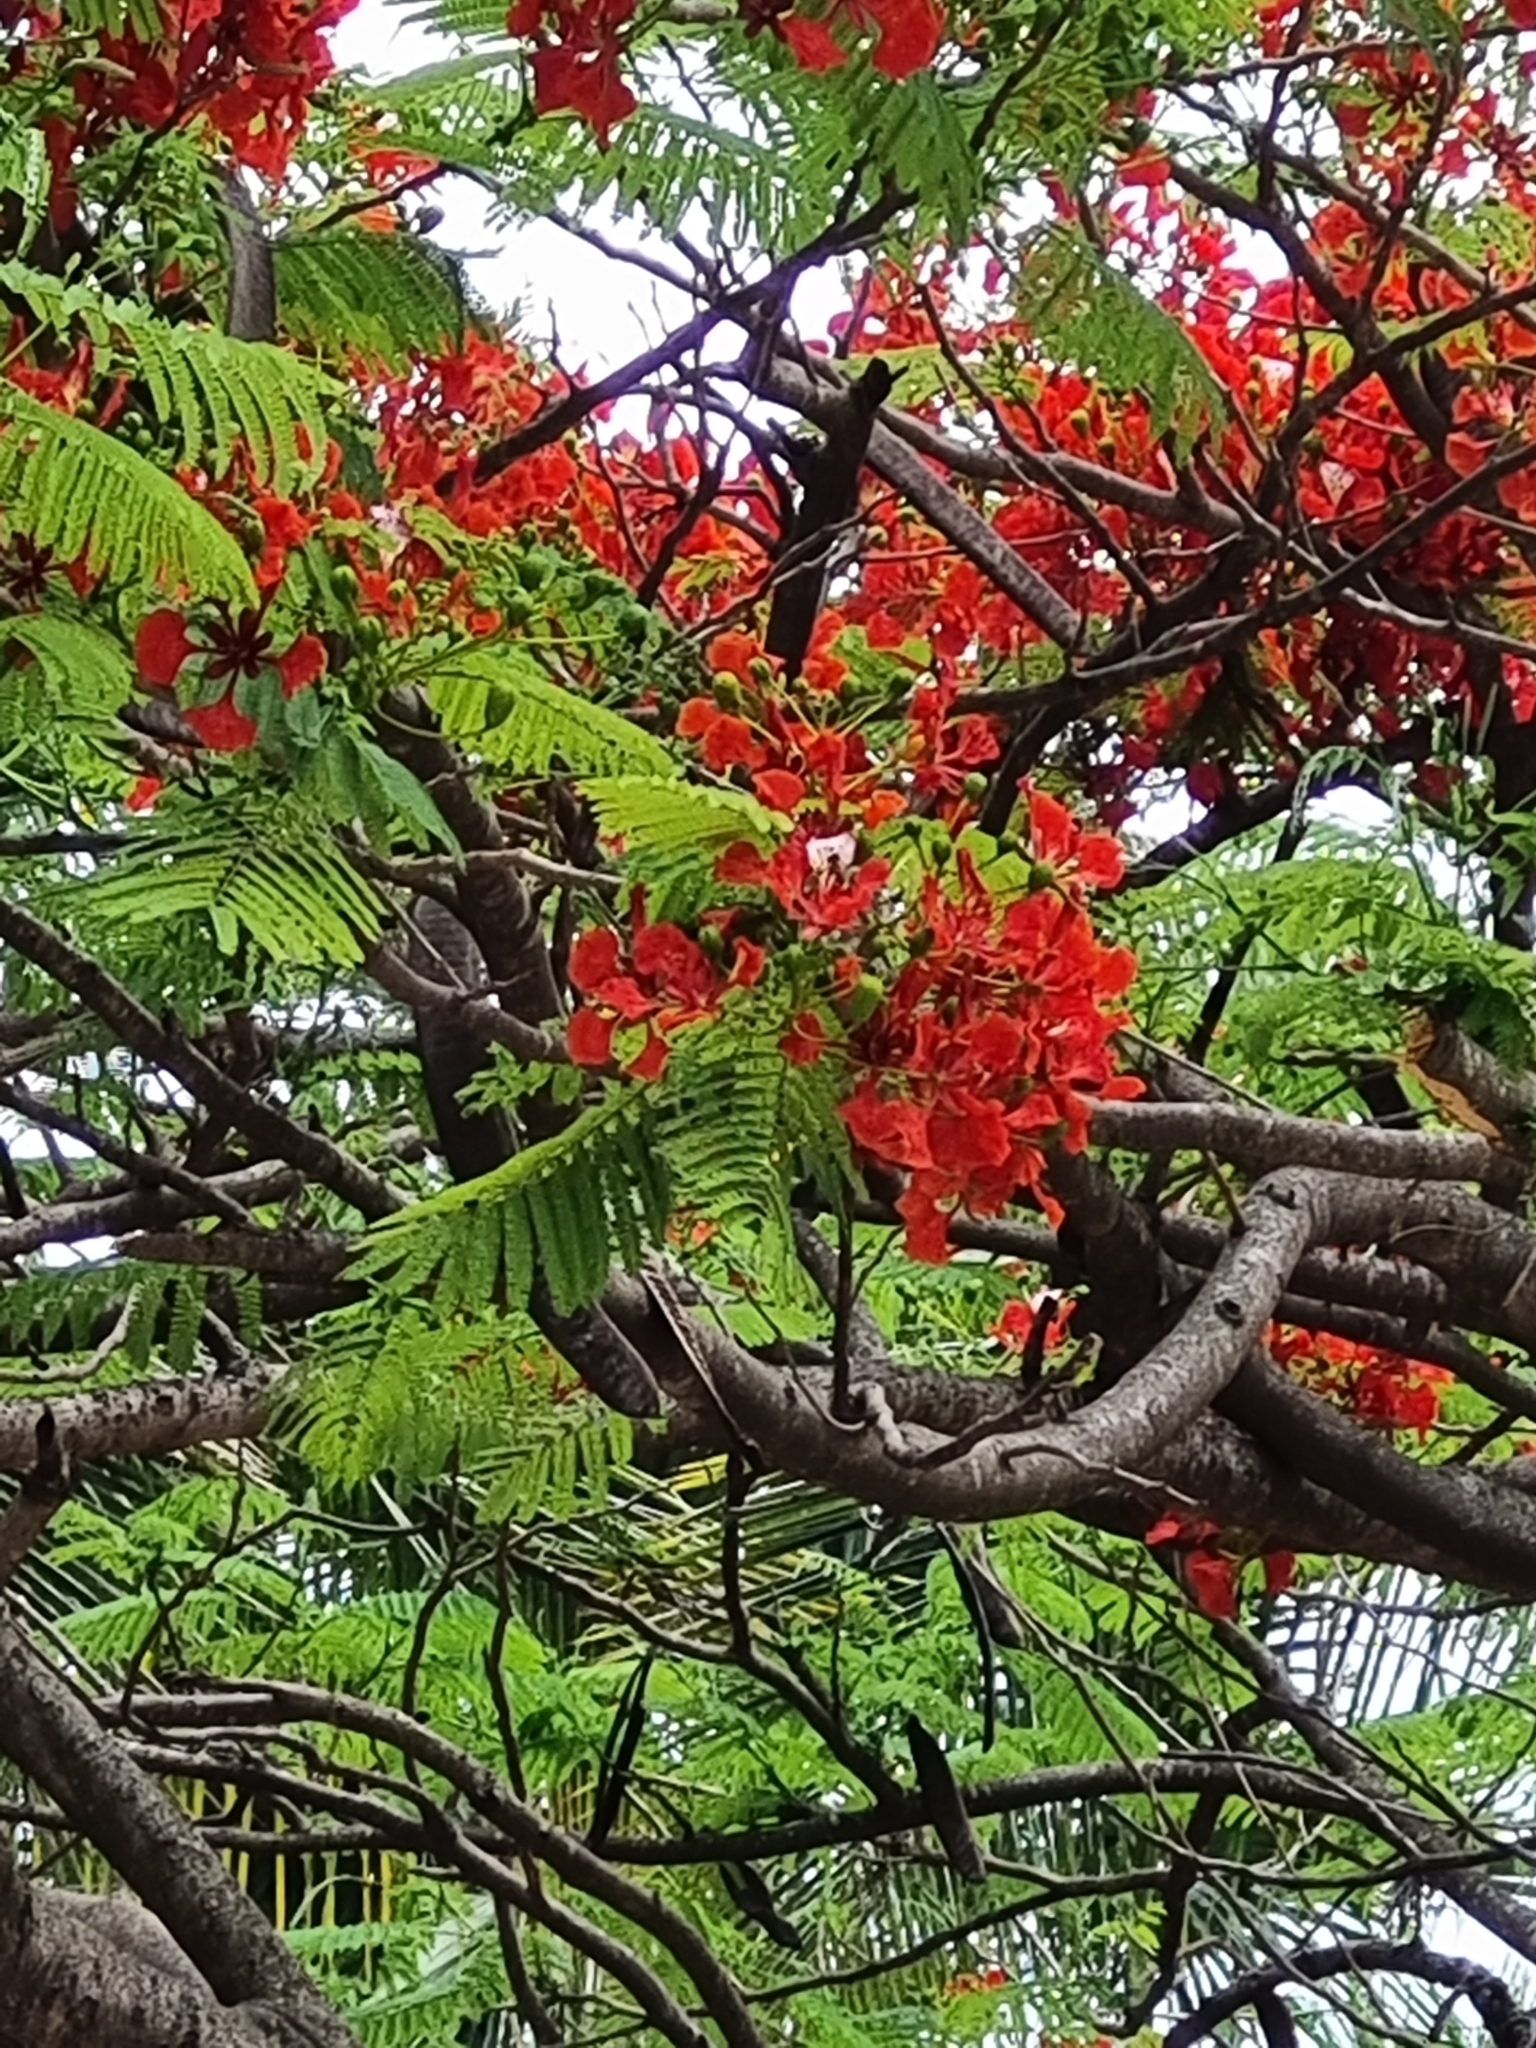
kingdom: Plantae
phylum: Tracheophyta
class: Magnoliopsida
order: Fabales
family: Fabaceae
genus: Delonix
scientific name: Delonix regia
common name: Royal poinciana
